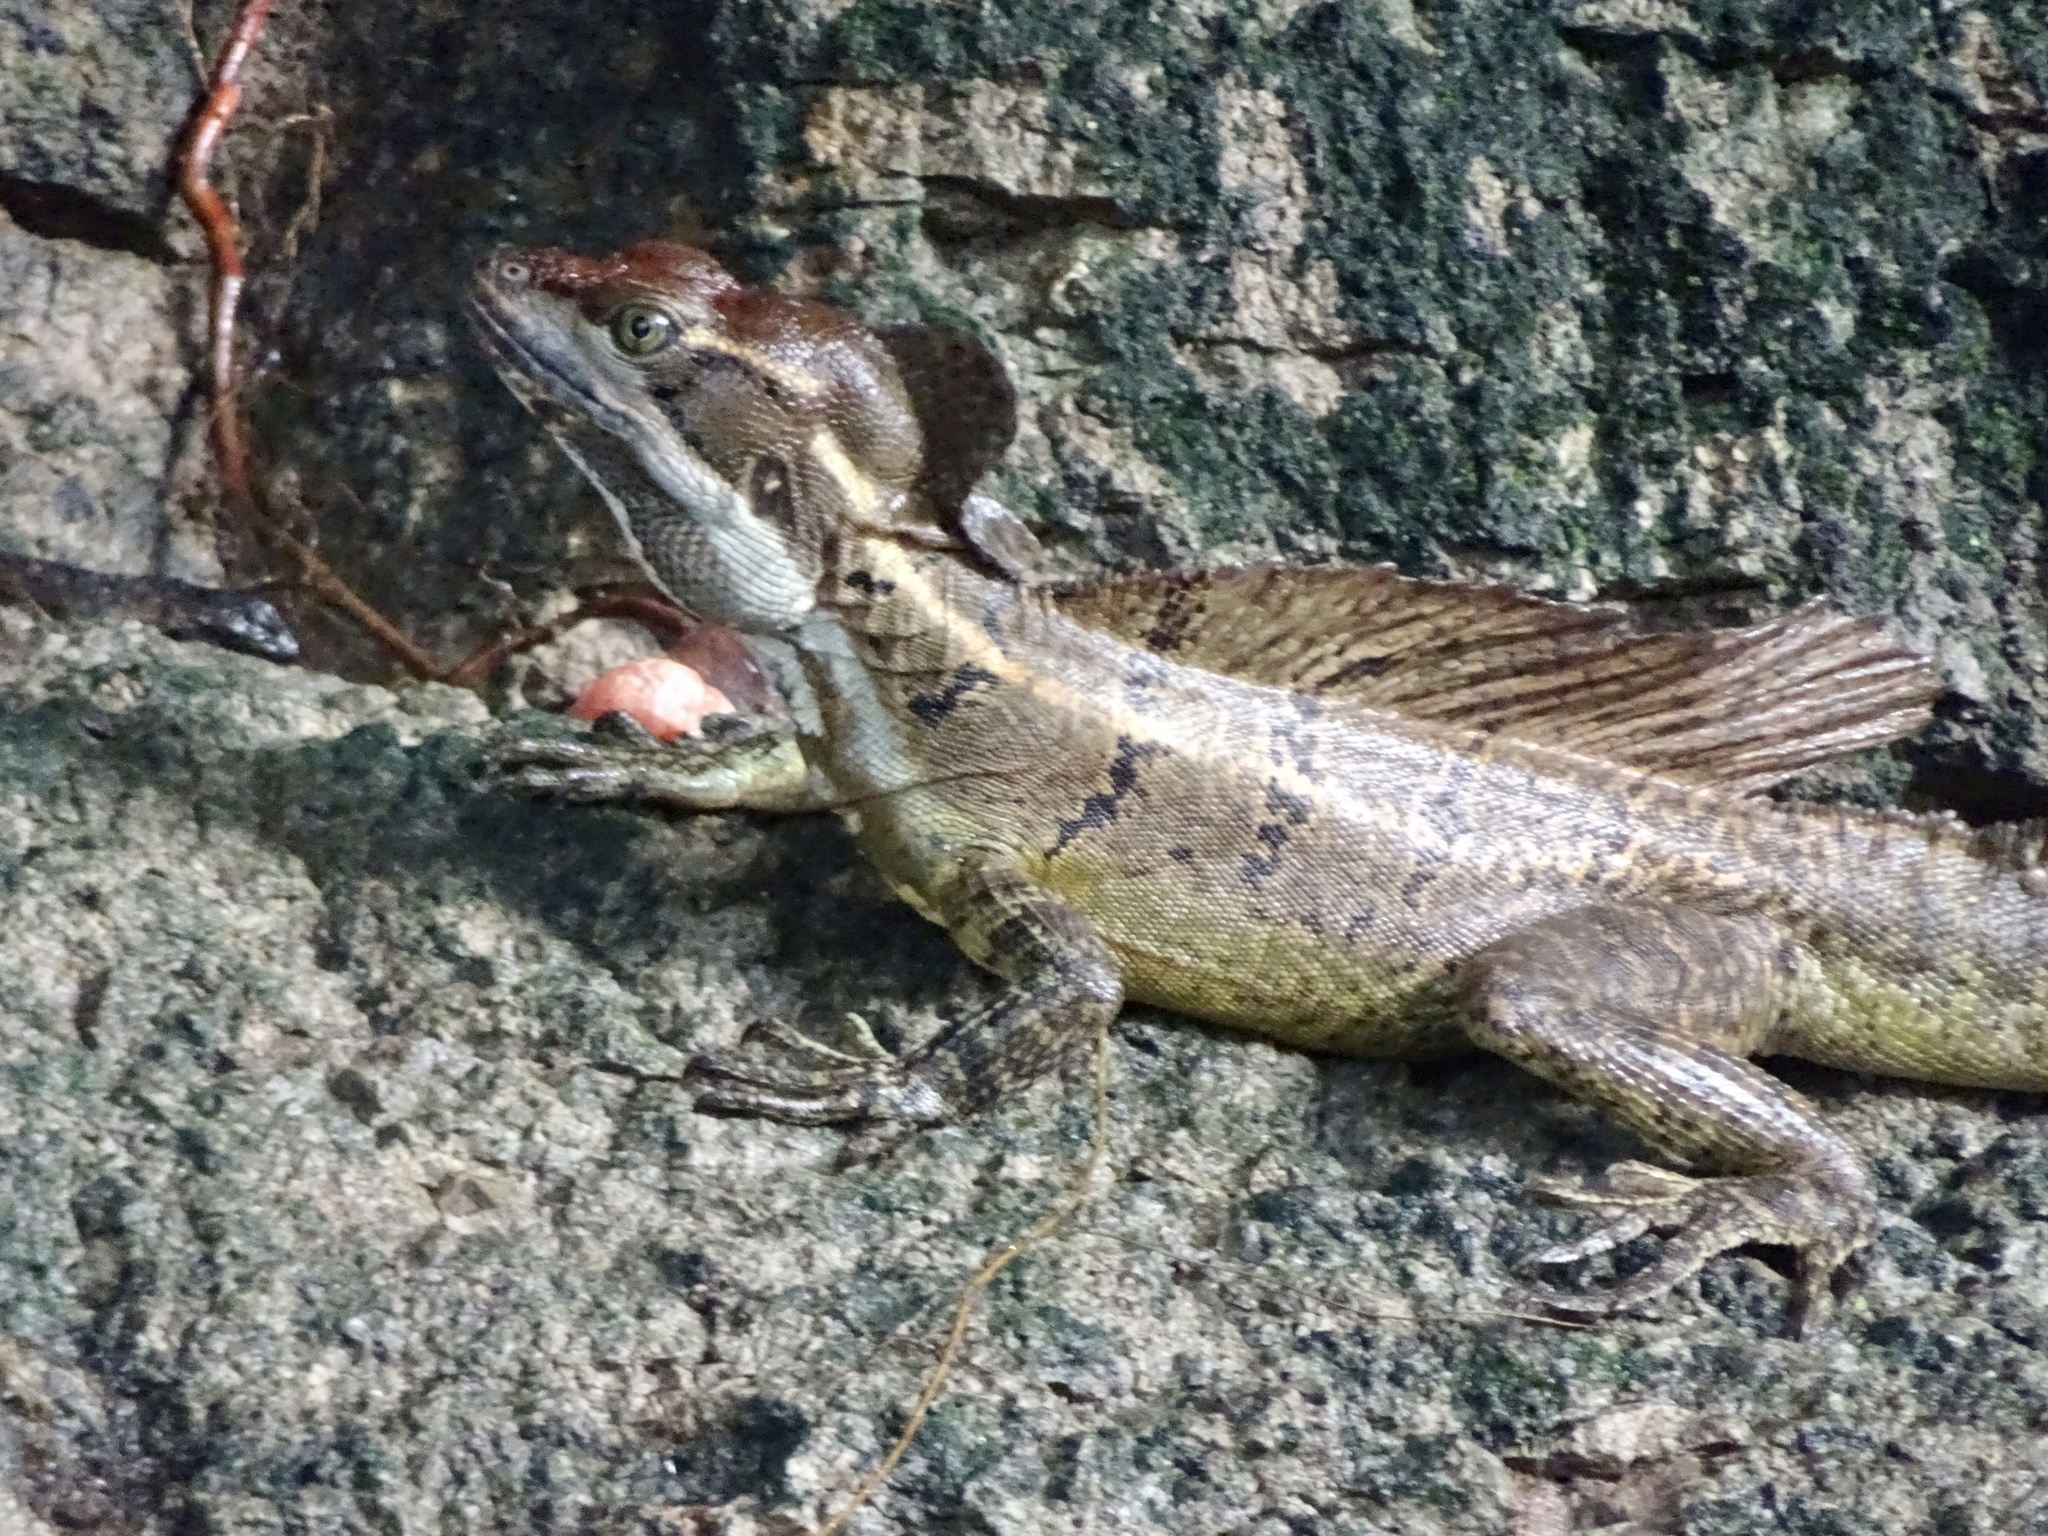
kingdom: Animalia
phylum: Chordata
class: Squamata
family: Corytophanidae
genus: Basiliscus
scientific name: Basiliscus basiliscus
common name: Common basilisk
